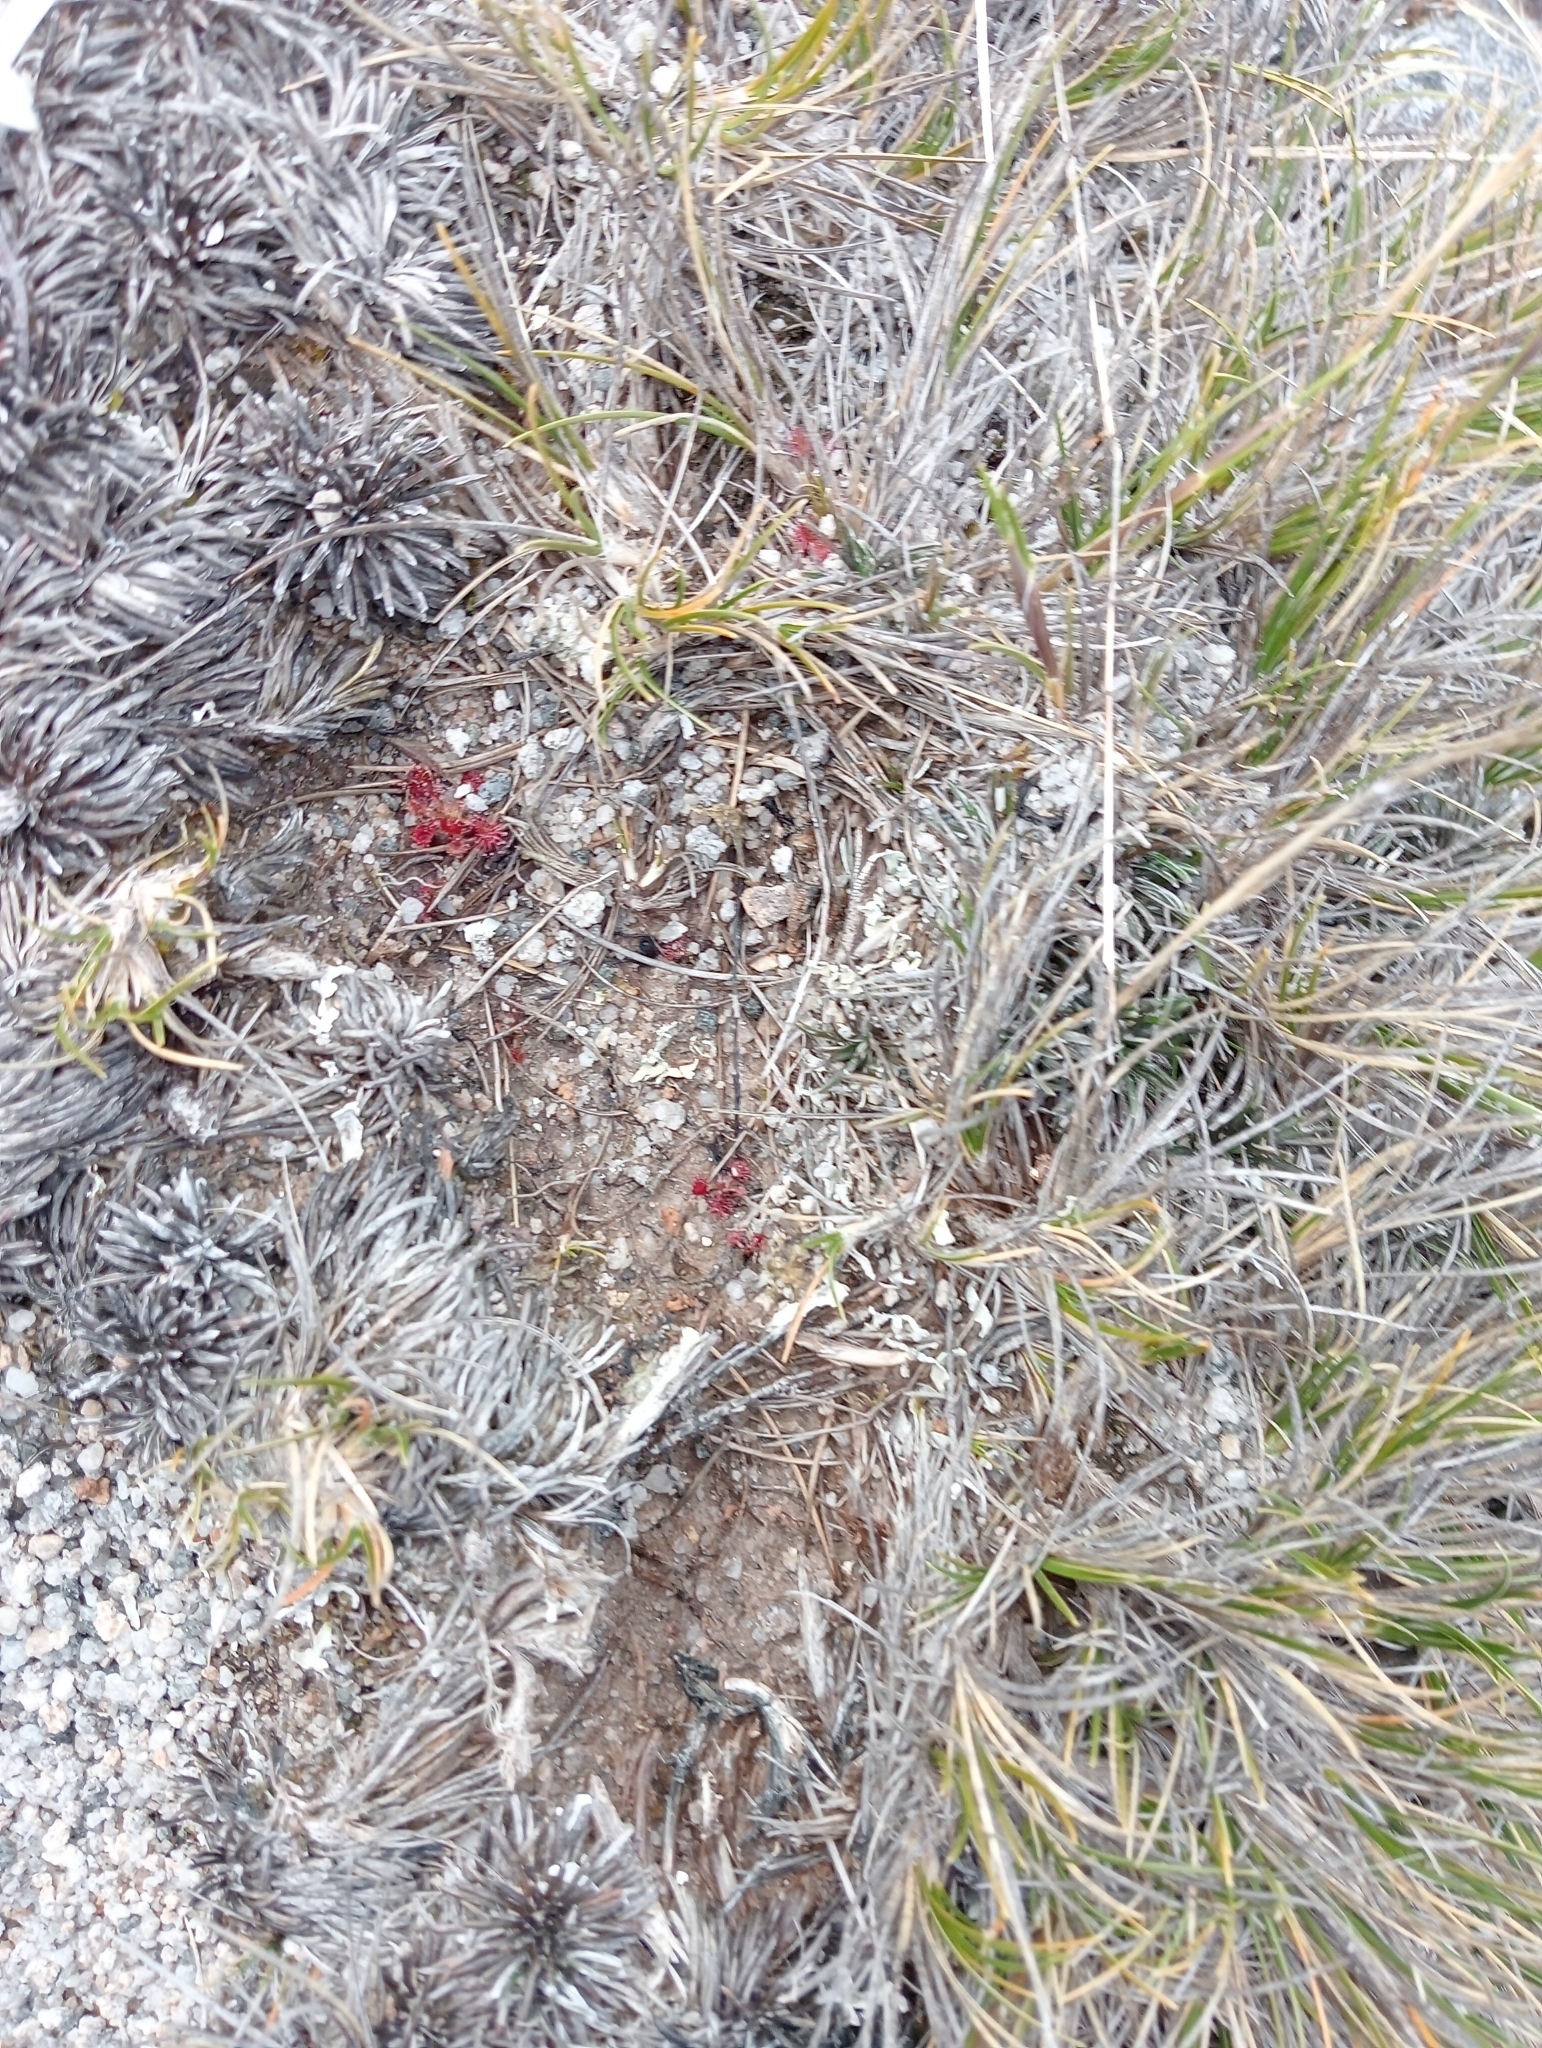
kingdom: Plantae
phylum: Tracheophyta
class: Magnoliopsida
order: Asterales
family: Asteraceae
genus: Celmisia
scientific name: Celmisia similis
